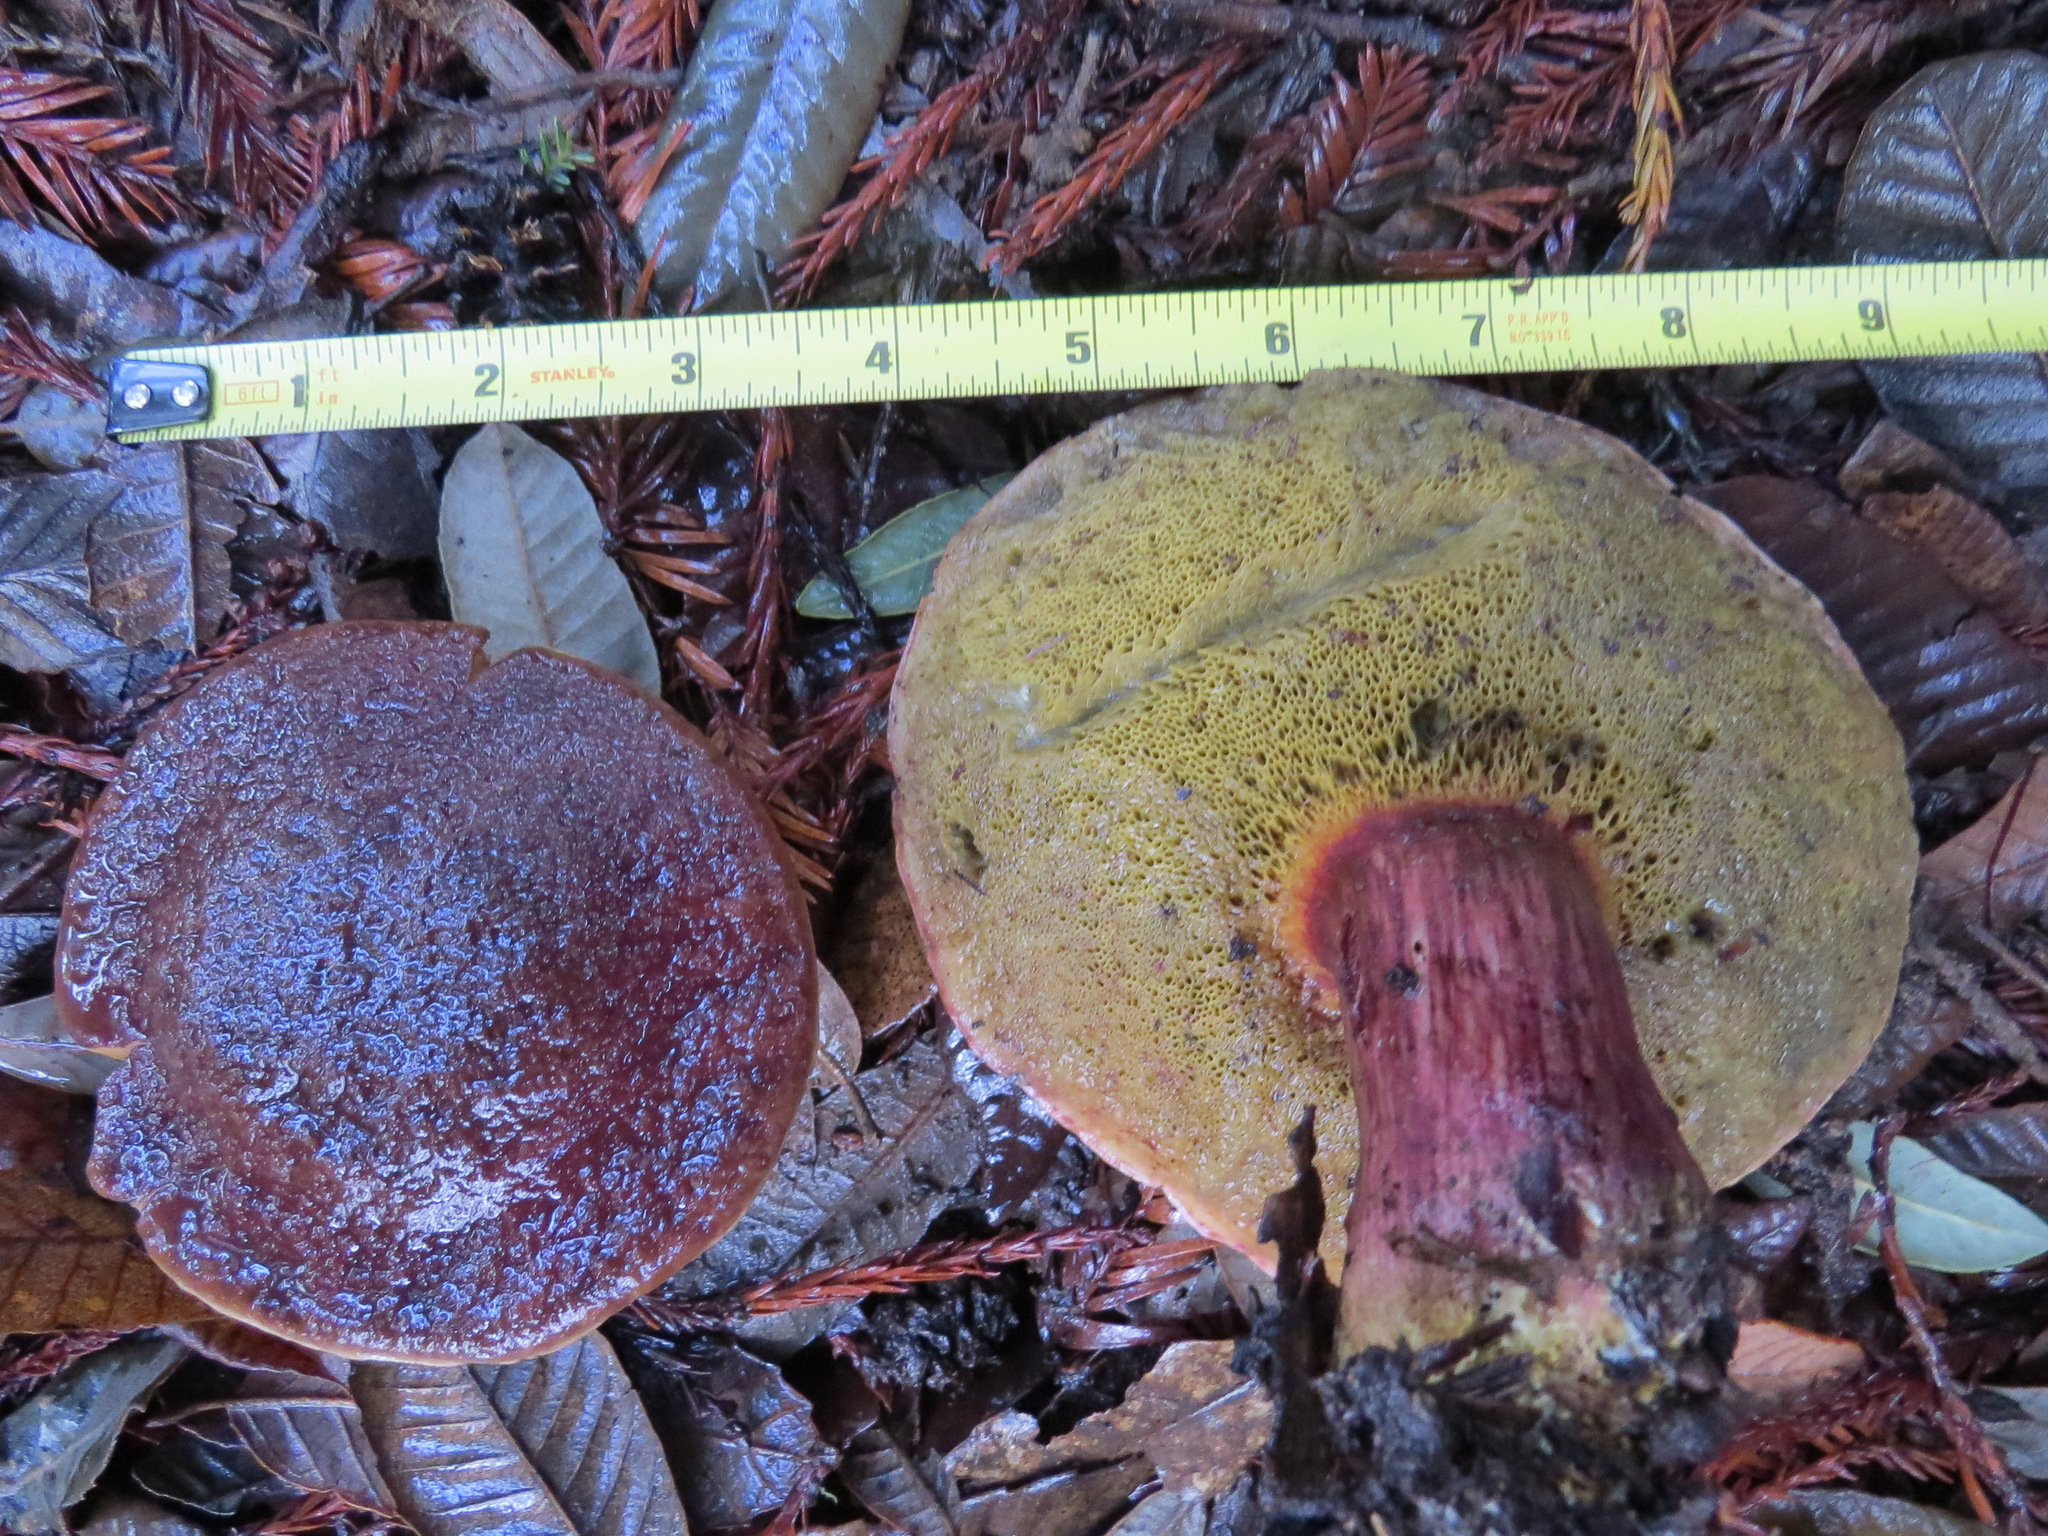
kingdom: Fungi
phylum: Basidiomycota
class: Agaricomycetes
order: Boletales
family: Boletaceae
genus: Xerocomellus
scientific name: Xerocomellus atropurpureus
